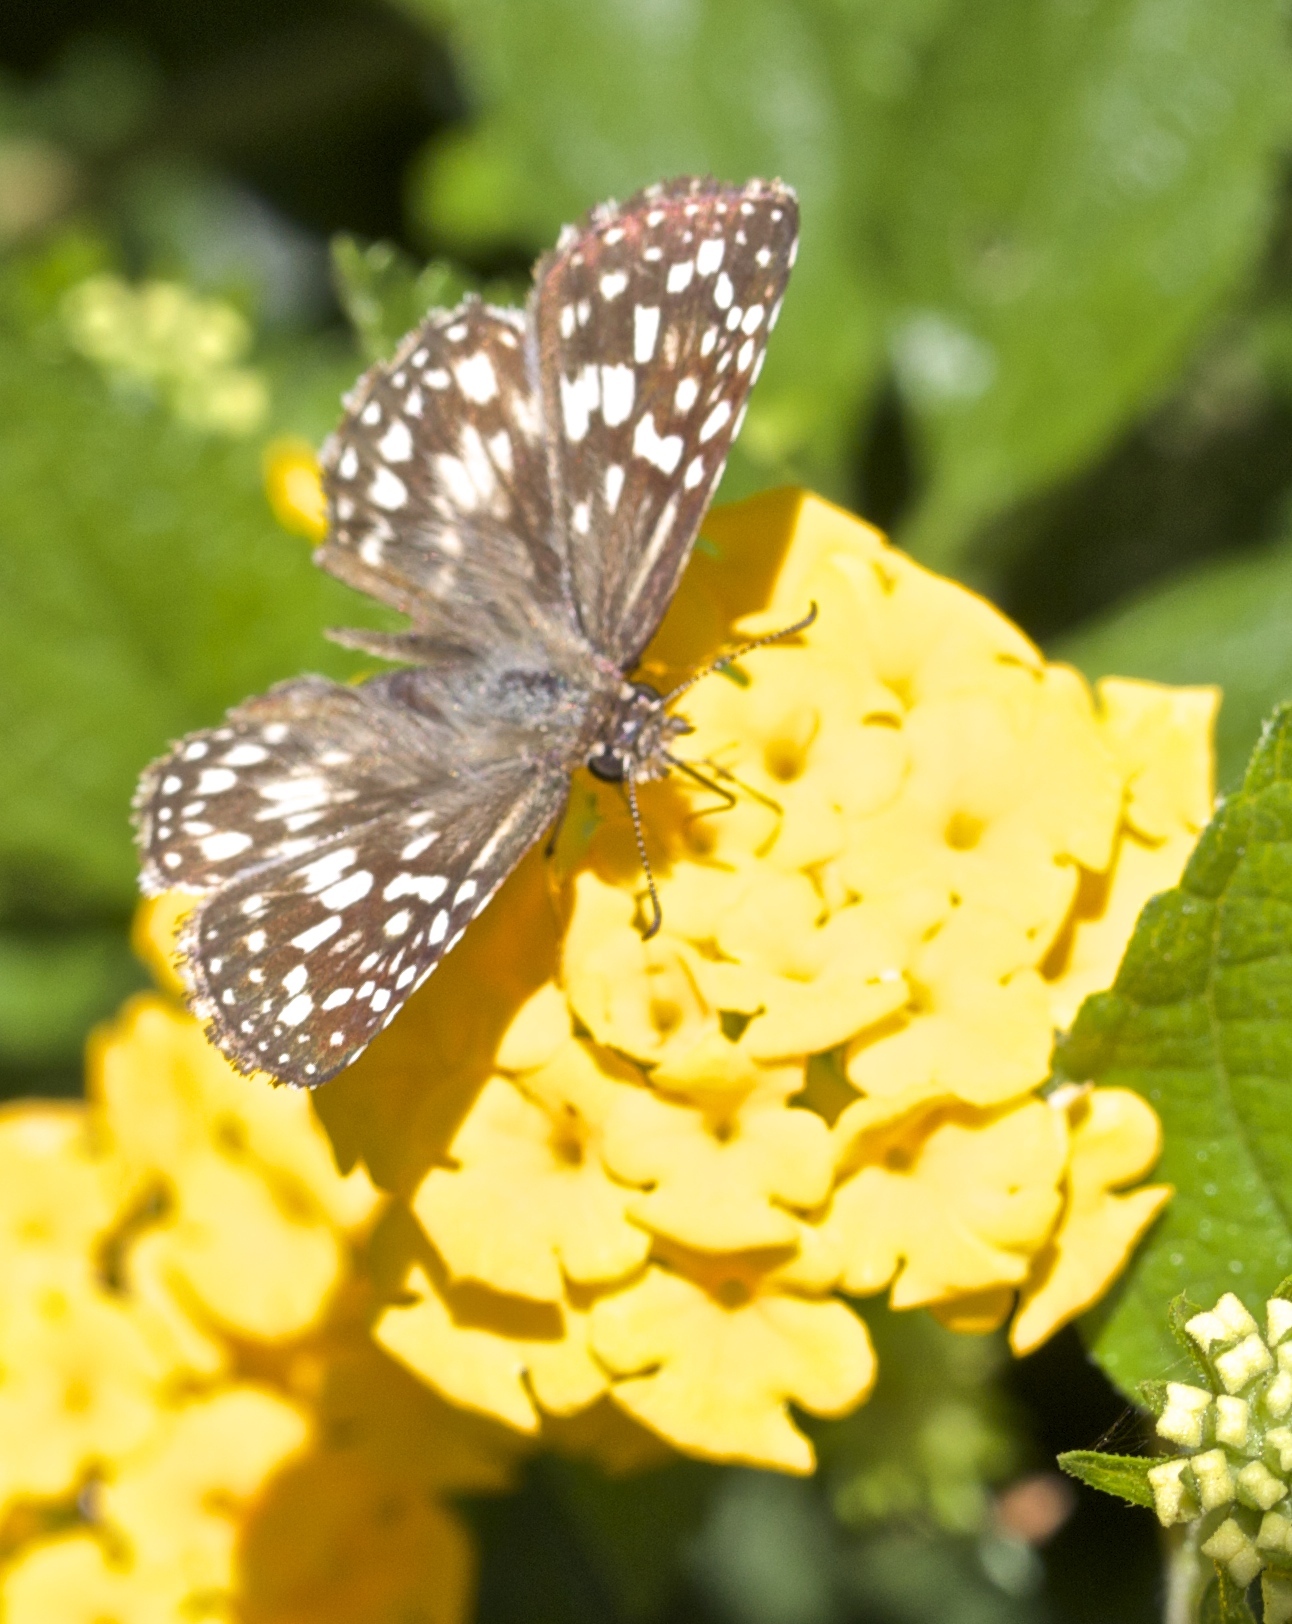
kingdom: Animalia
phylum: Arthropoda
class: Insecta
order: Lepidoptera
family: Hesperiidae
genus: Pyrgus
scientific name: Pyrgus oileus
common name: Tropical checkered-skipper
